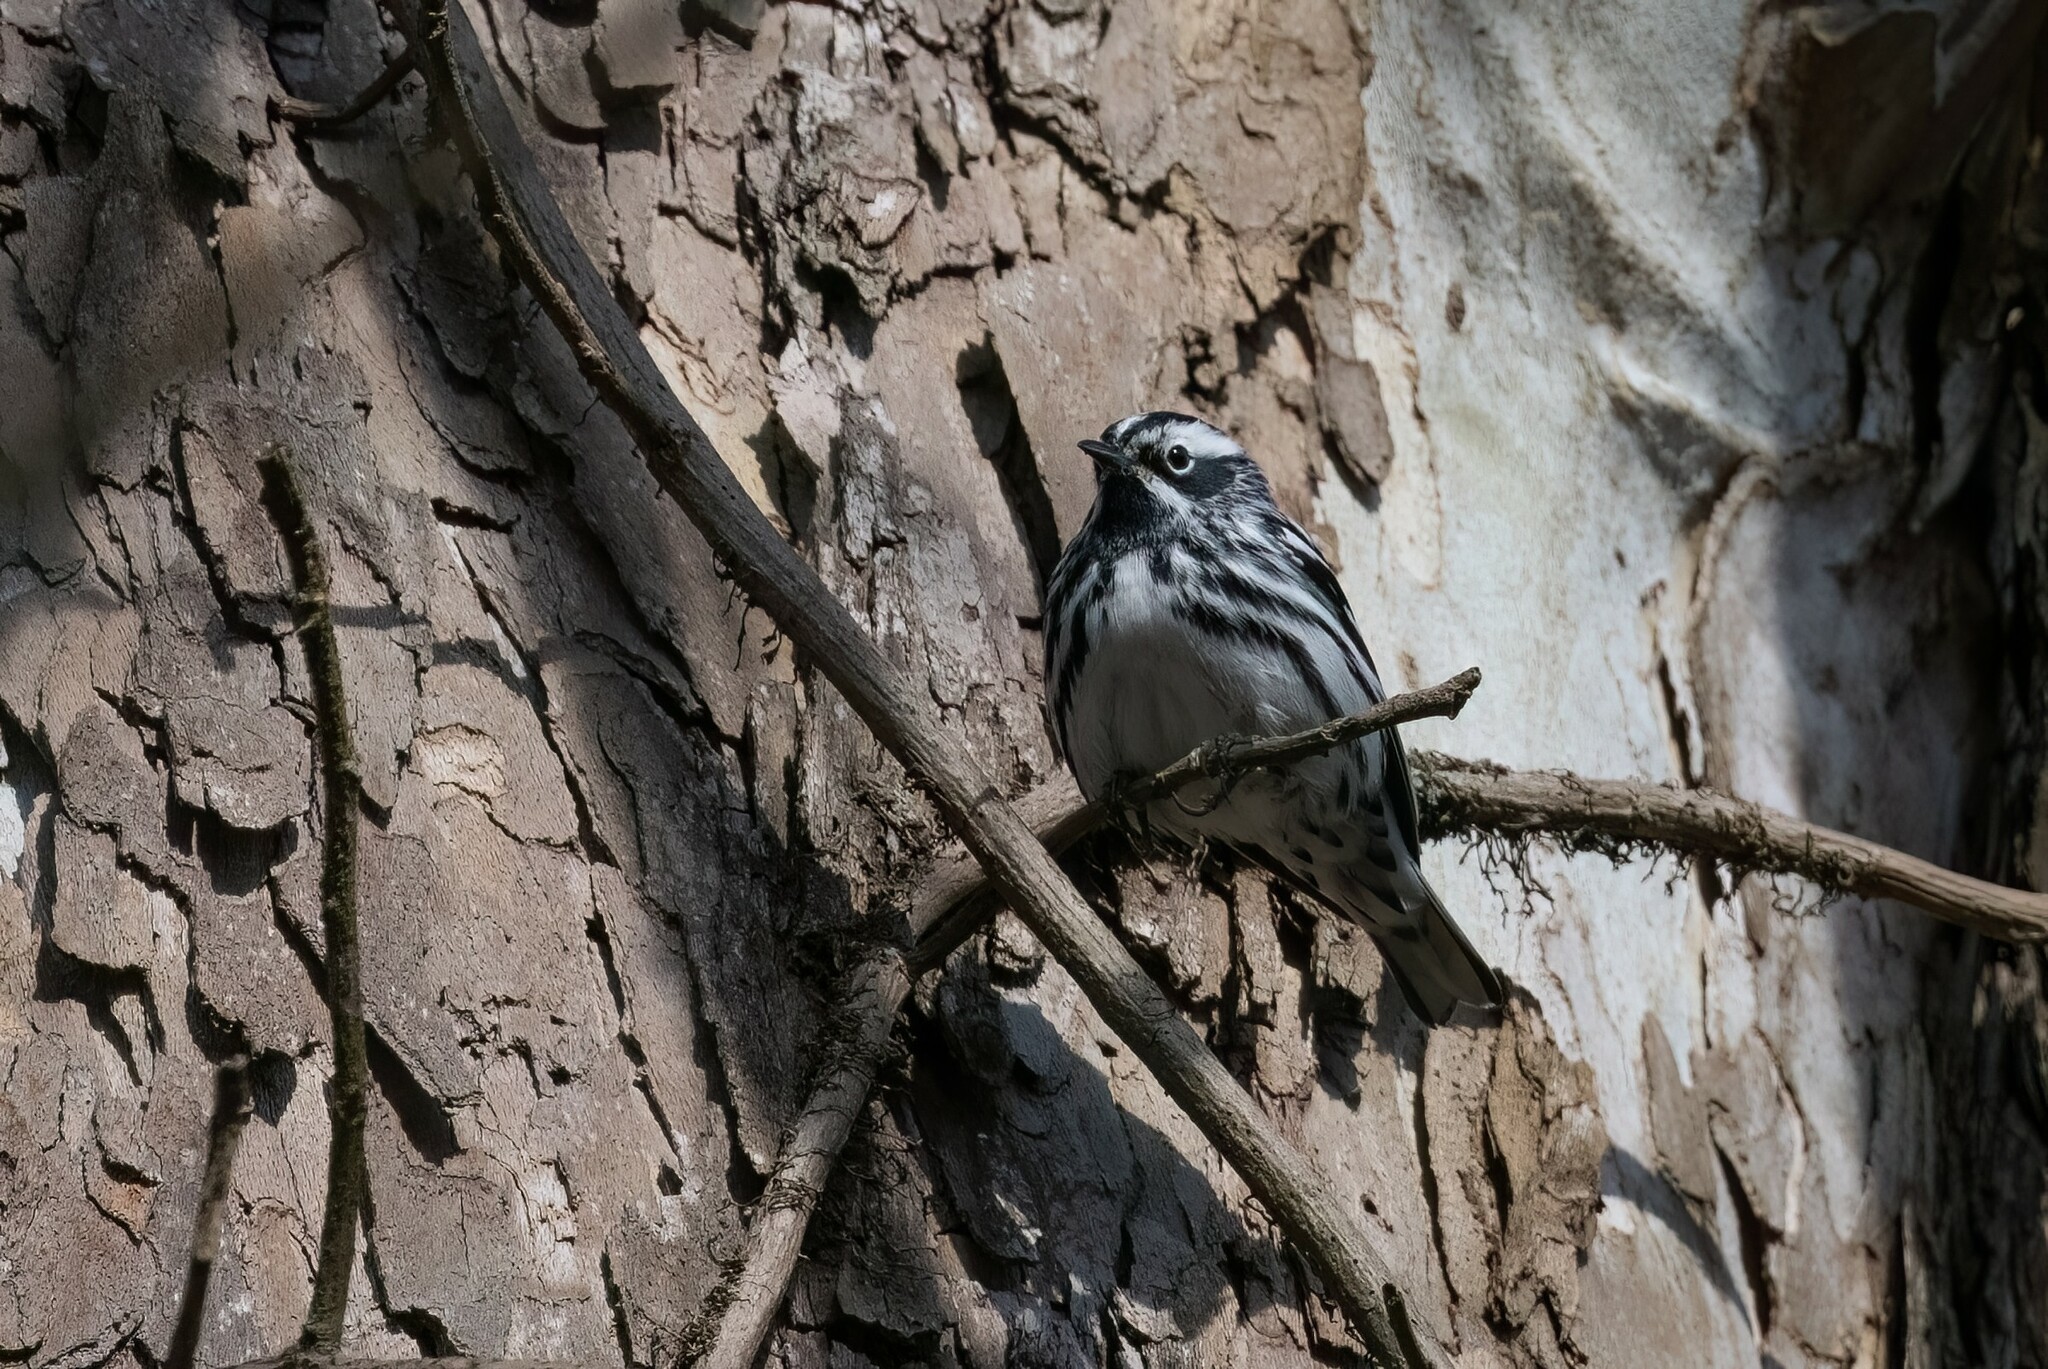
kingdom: Animalia
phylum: Chordata
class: Aves
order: Passeriformes
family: Parulidae
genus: Mniotilta
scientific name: Mniotilta varia
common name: Black-and-white warbler
